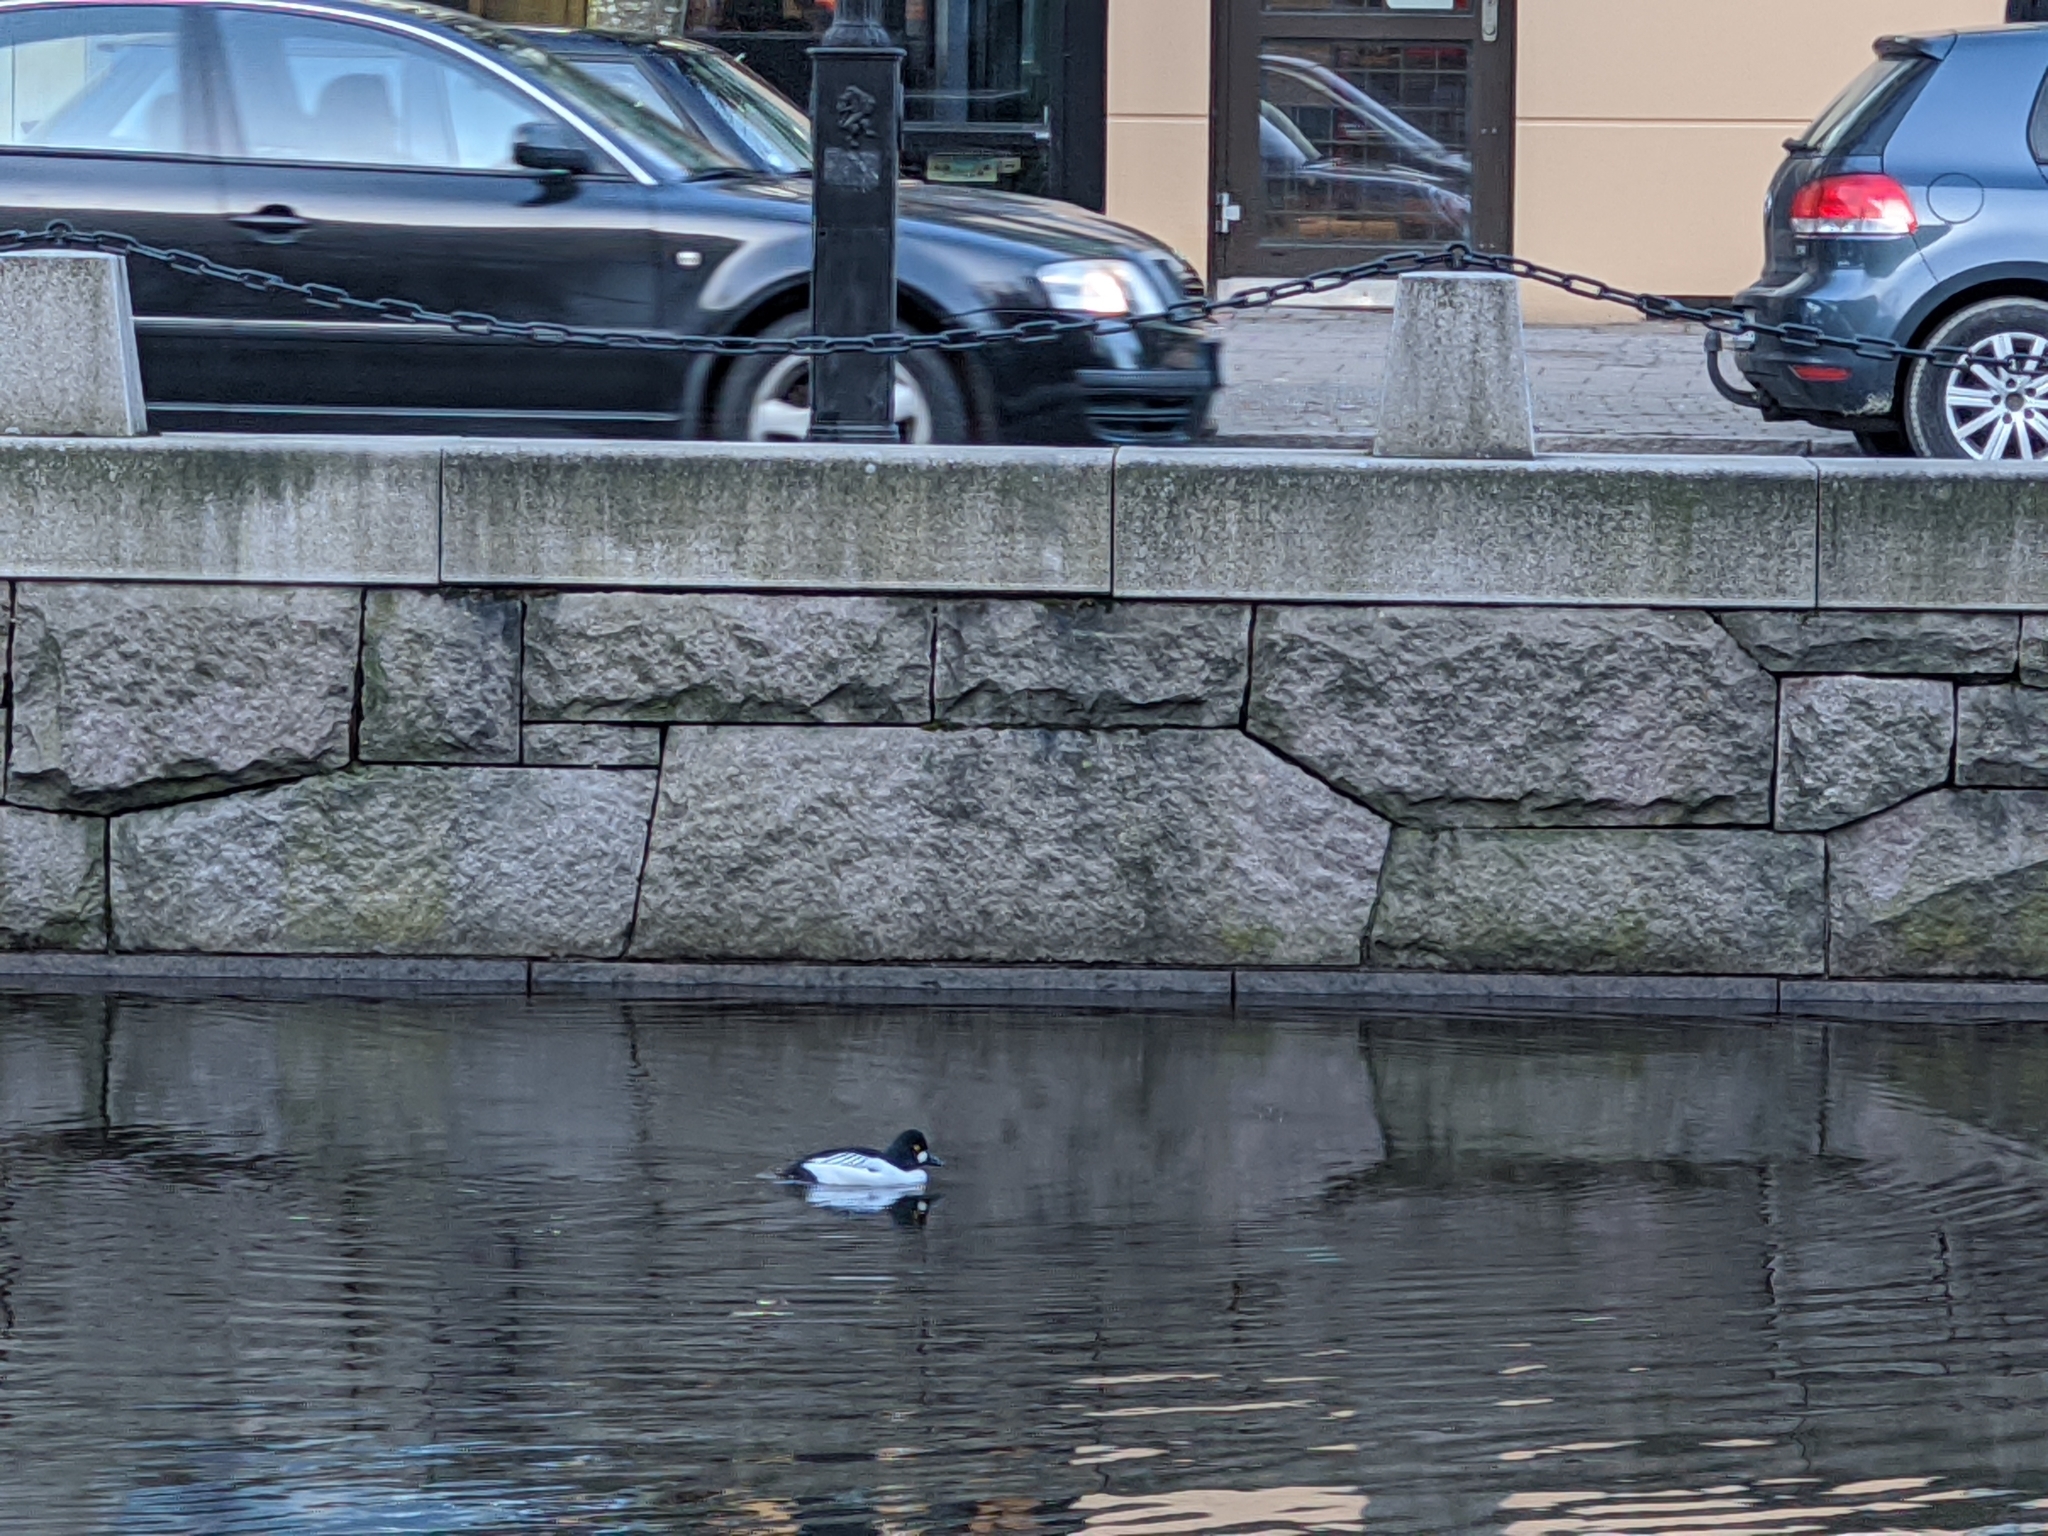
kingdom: Animalia
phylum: Chordata
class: Aves
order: Anseriformes
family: Anatidae
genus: Bucephala
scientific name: Bucephala clangula
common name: Common goldeneye
